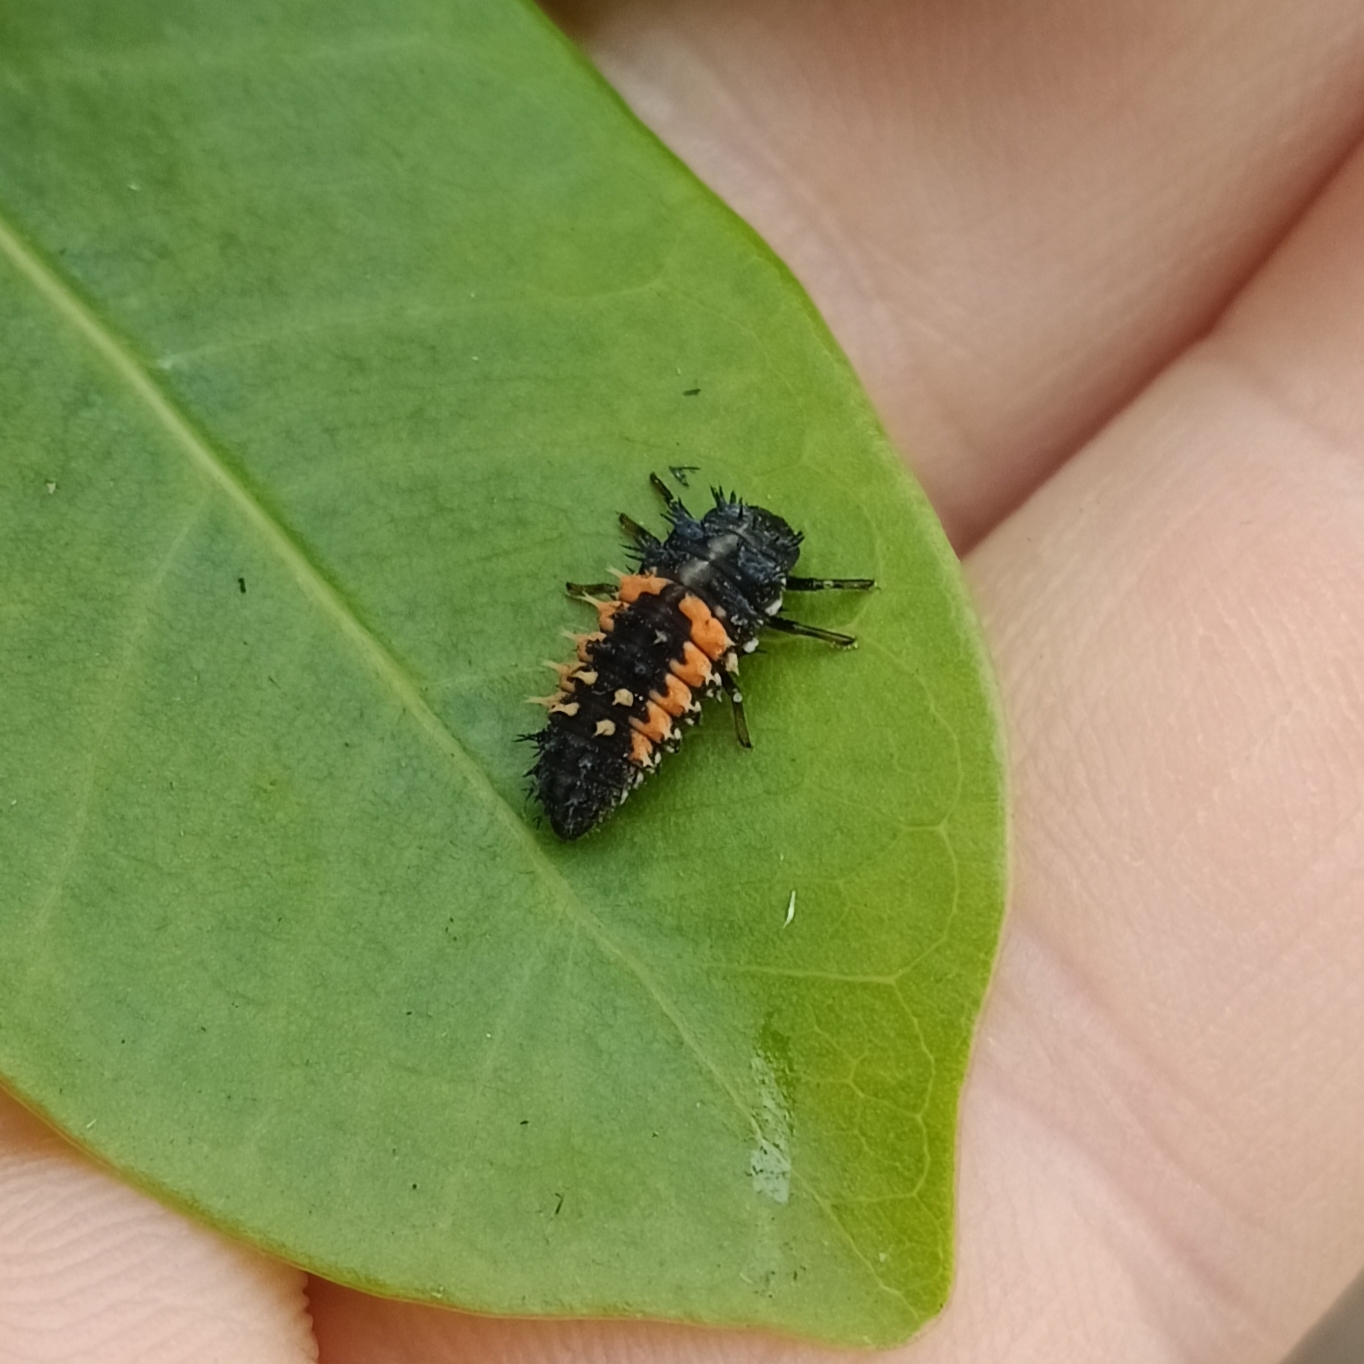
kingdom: Animalia
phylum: Arthropoda
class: Insecta
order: Coleoptera
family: Coccinellidae
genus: Harmonia
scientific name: Harmonia axyridis
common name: Harlequin ladybird
